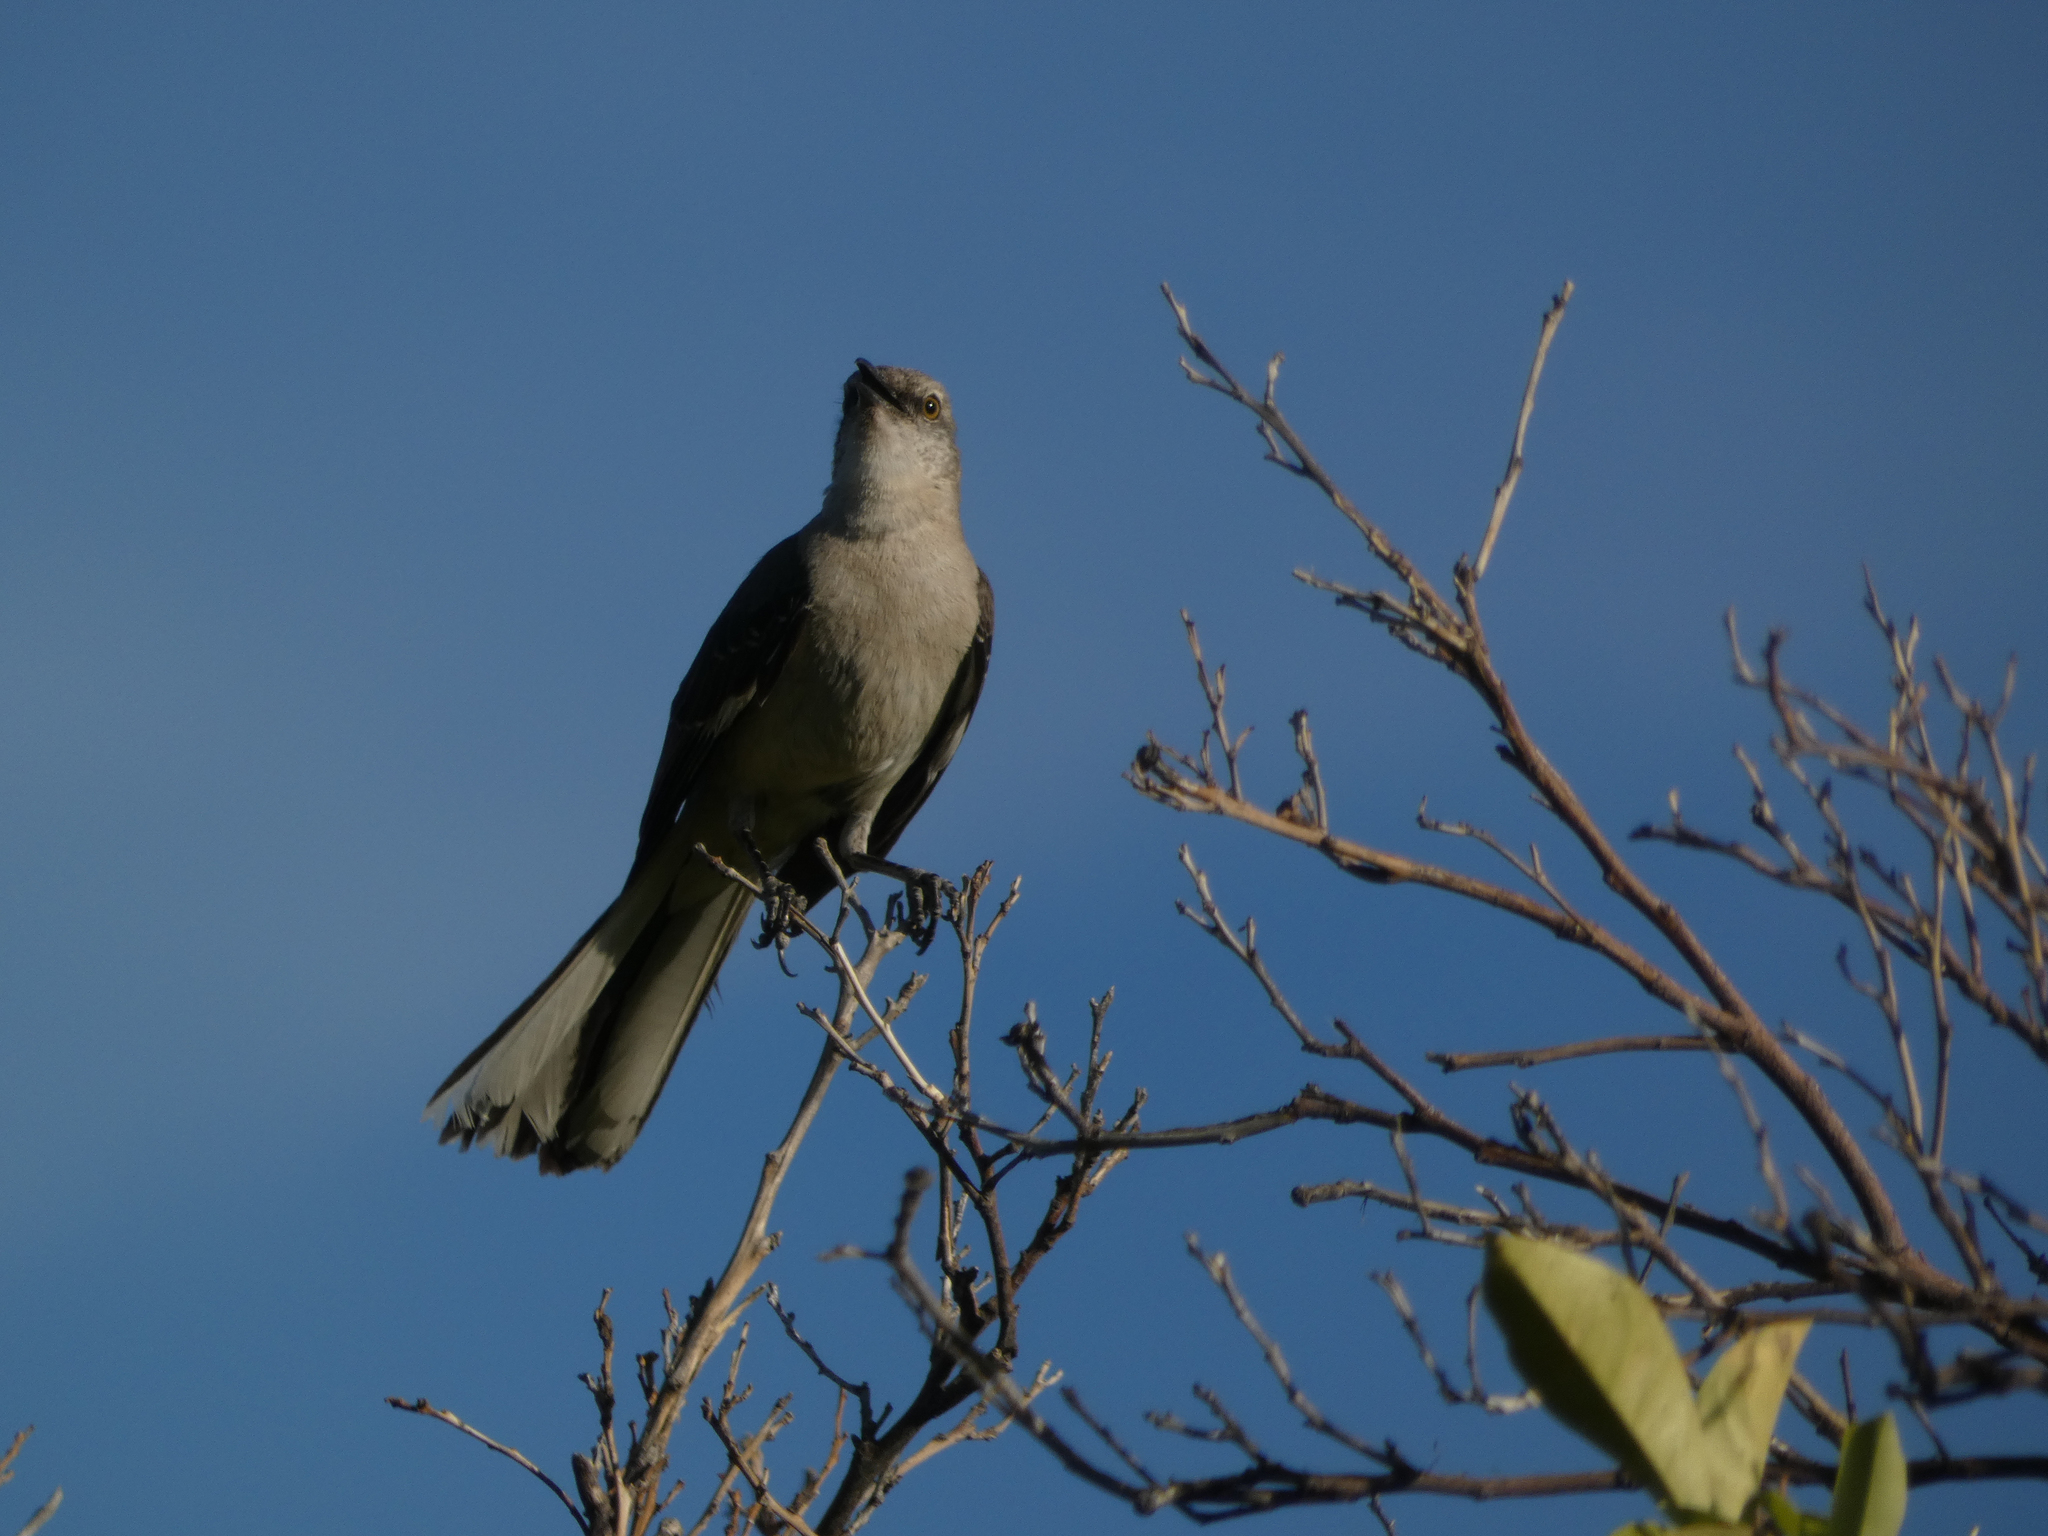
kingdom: Animalia
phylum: Chordata
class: Aves
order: Passeriformes
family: Mimidae
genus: Mimus
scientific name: Mimus polyglottos
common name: Northern mockingbird
